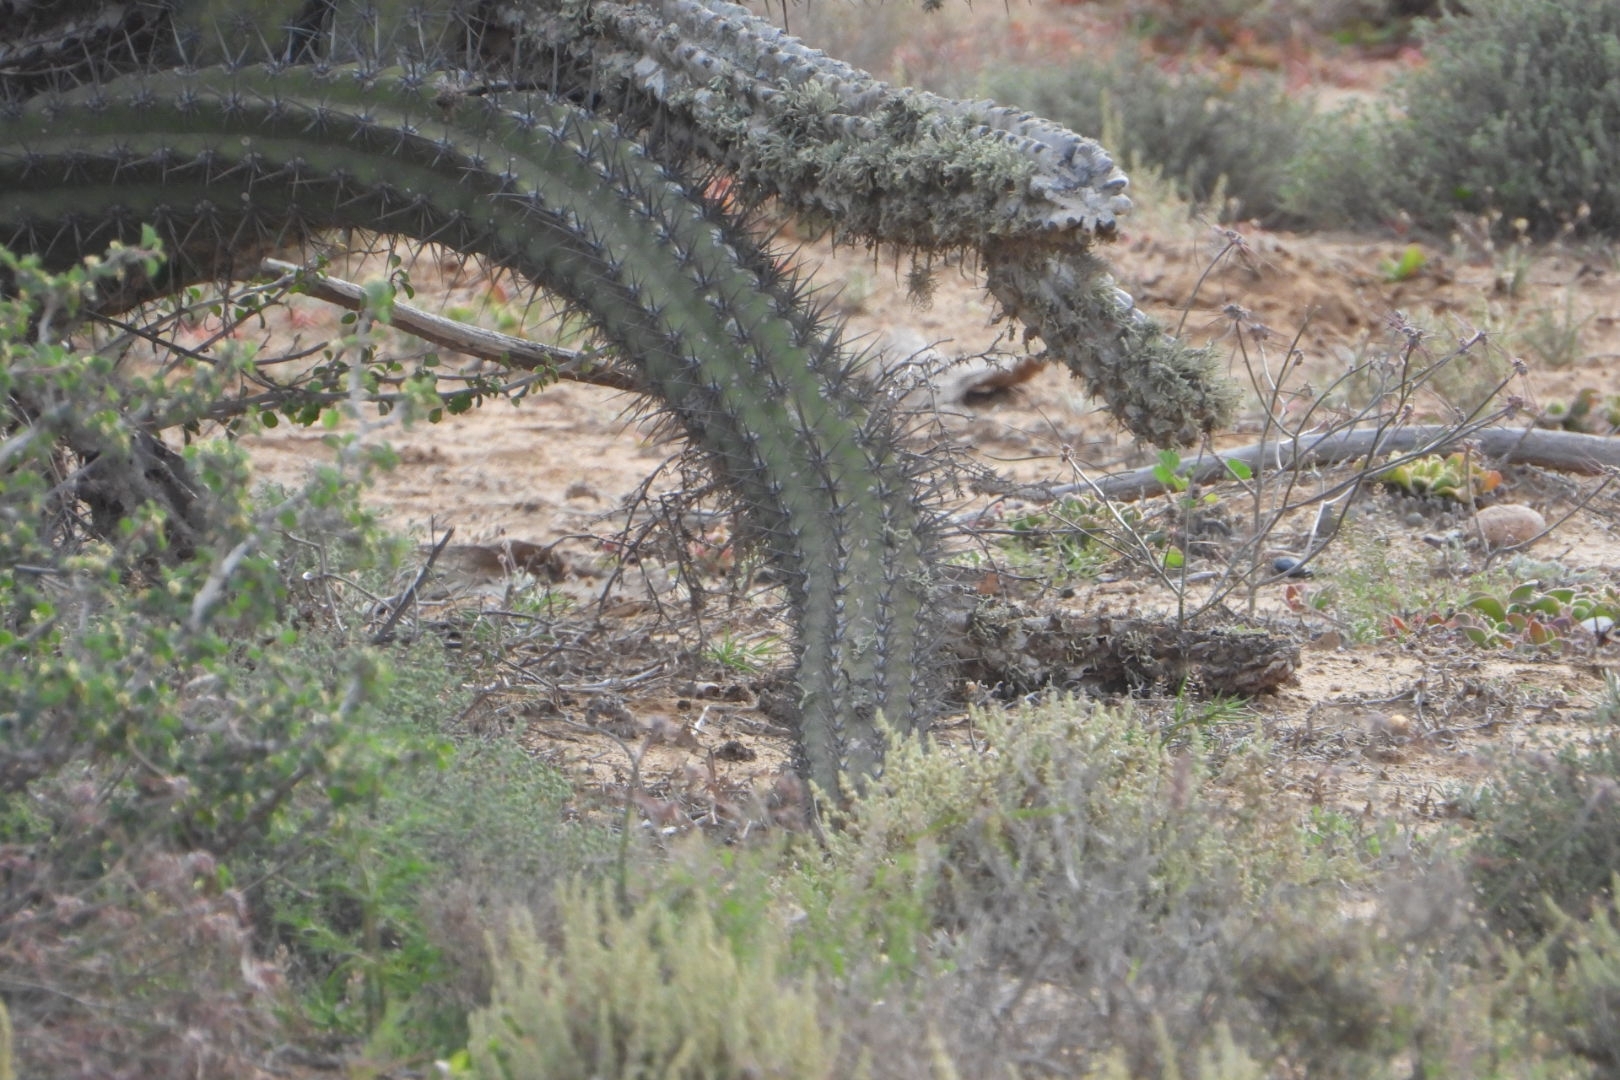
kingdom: Plantae
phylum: Tracheophyta
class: Magnoliopsida
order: Caryophyllales
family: Cactaceae
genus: Stenocereus
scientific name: Stenocereus gummosus
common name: Dagger cactus
